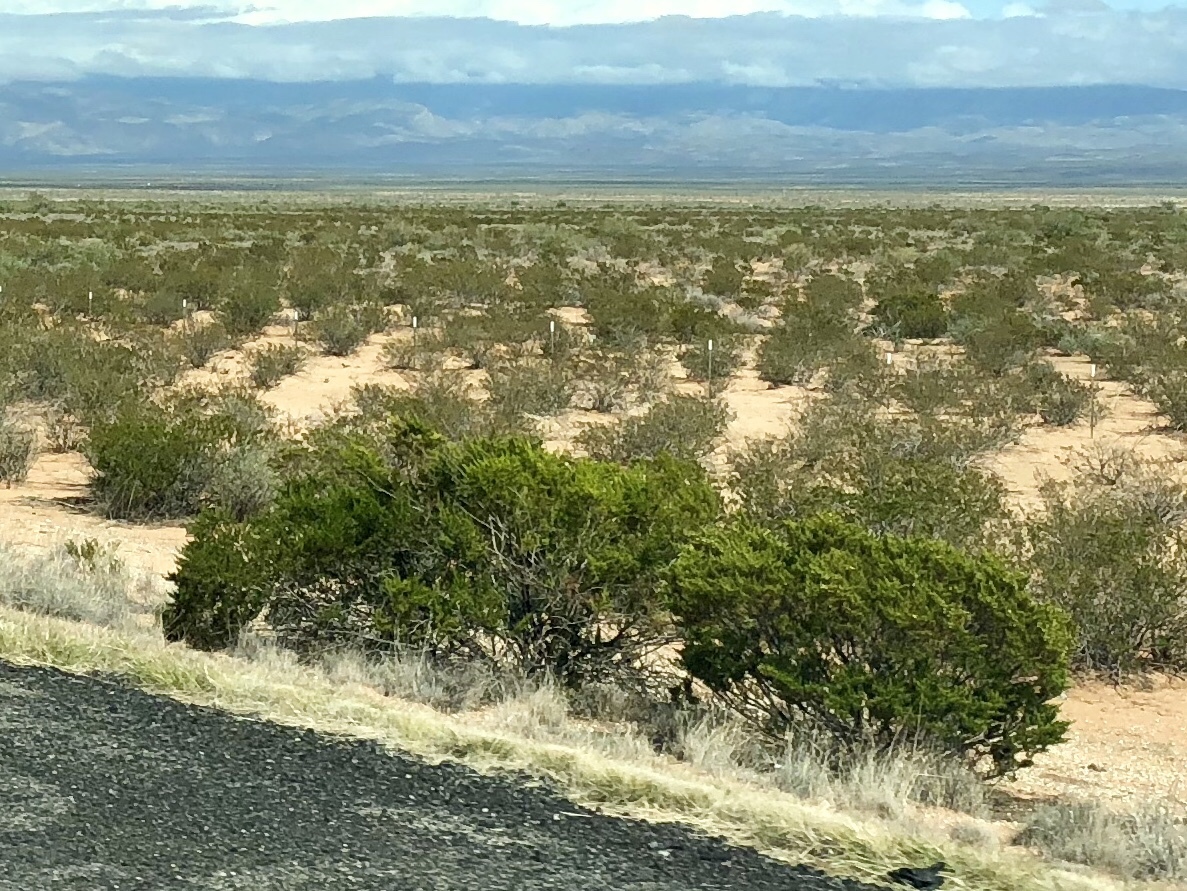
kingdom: Plantae
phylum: Tracheophyta
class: Magnoliopsida
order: Zygophyllales
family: Zygophyllaceae
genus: Larrea
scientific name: Larrea tridentata
